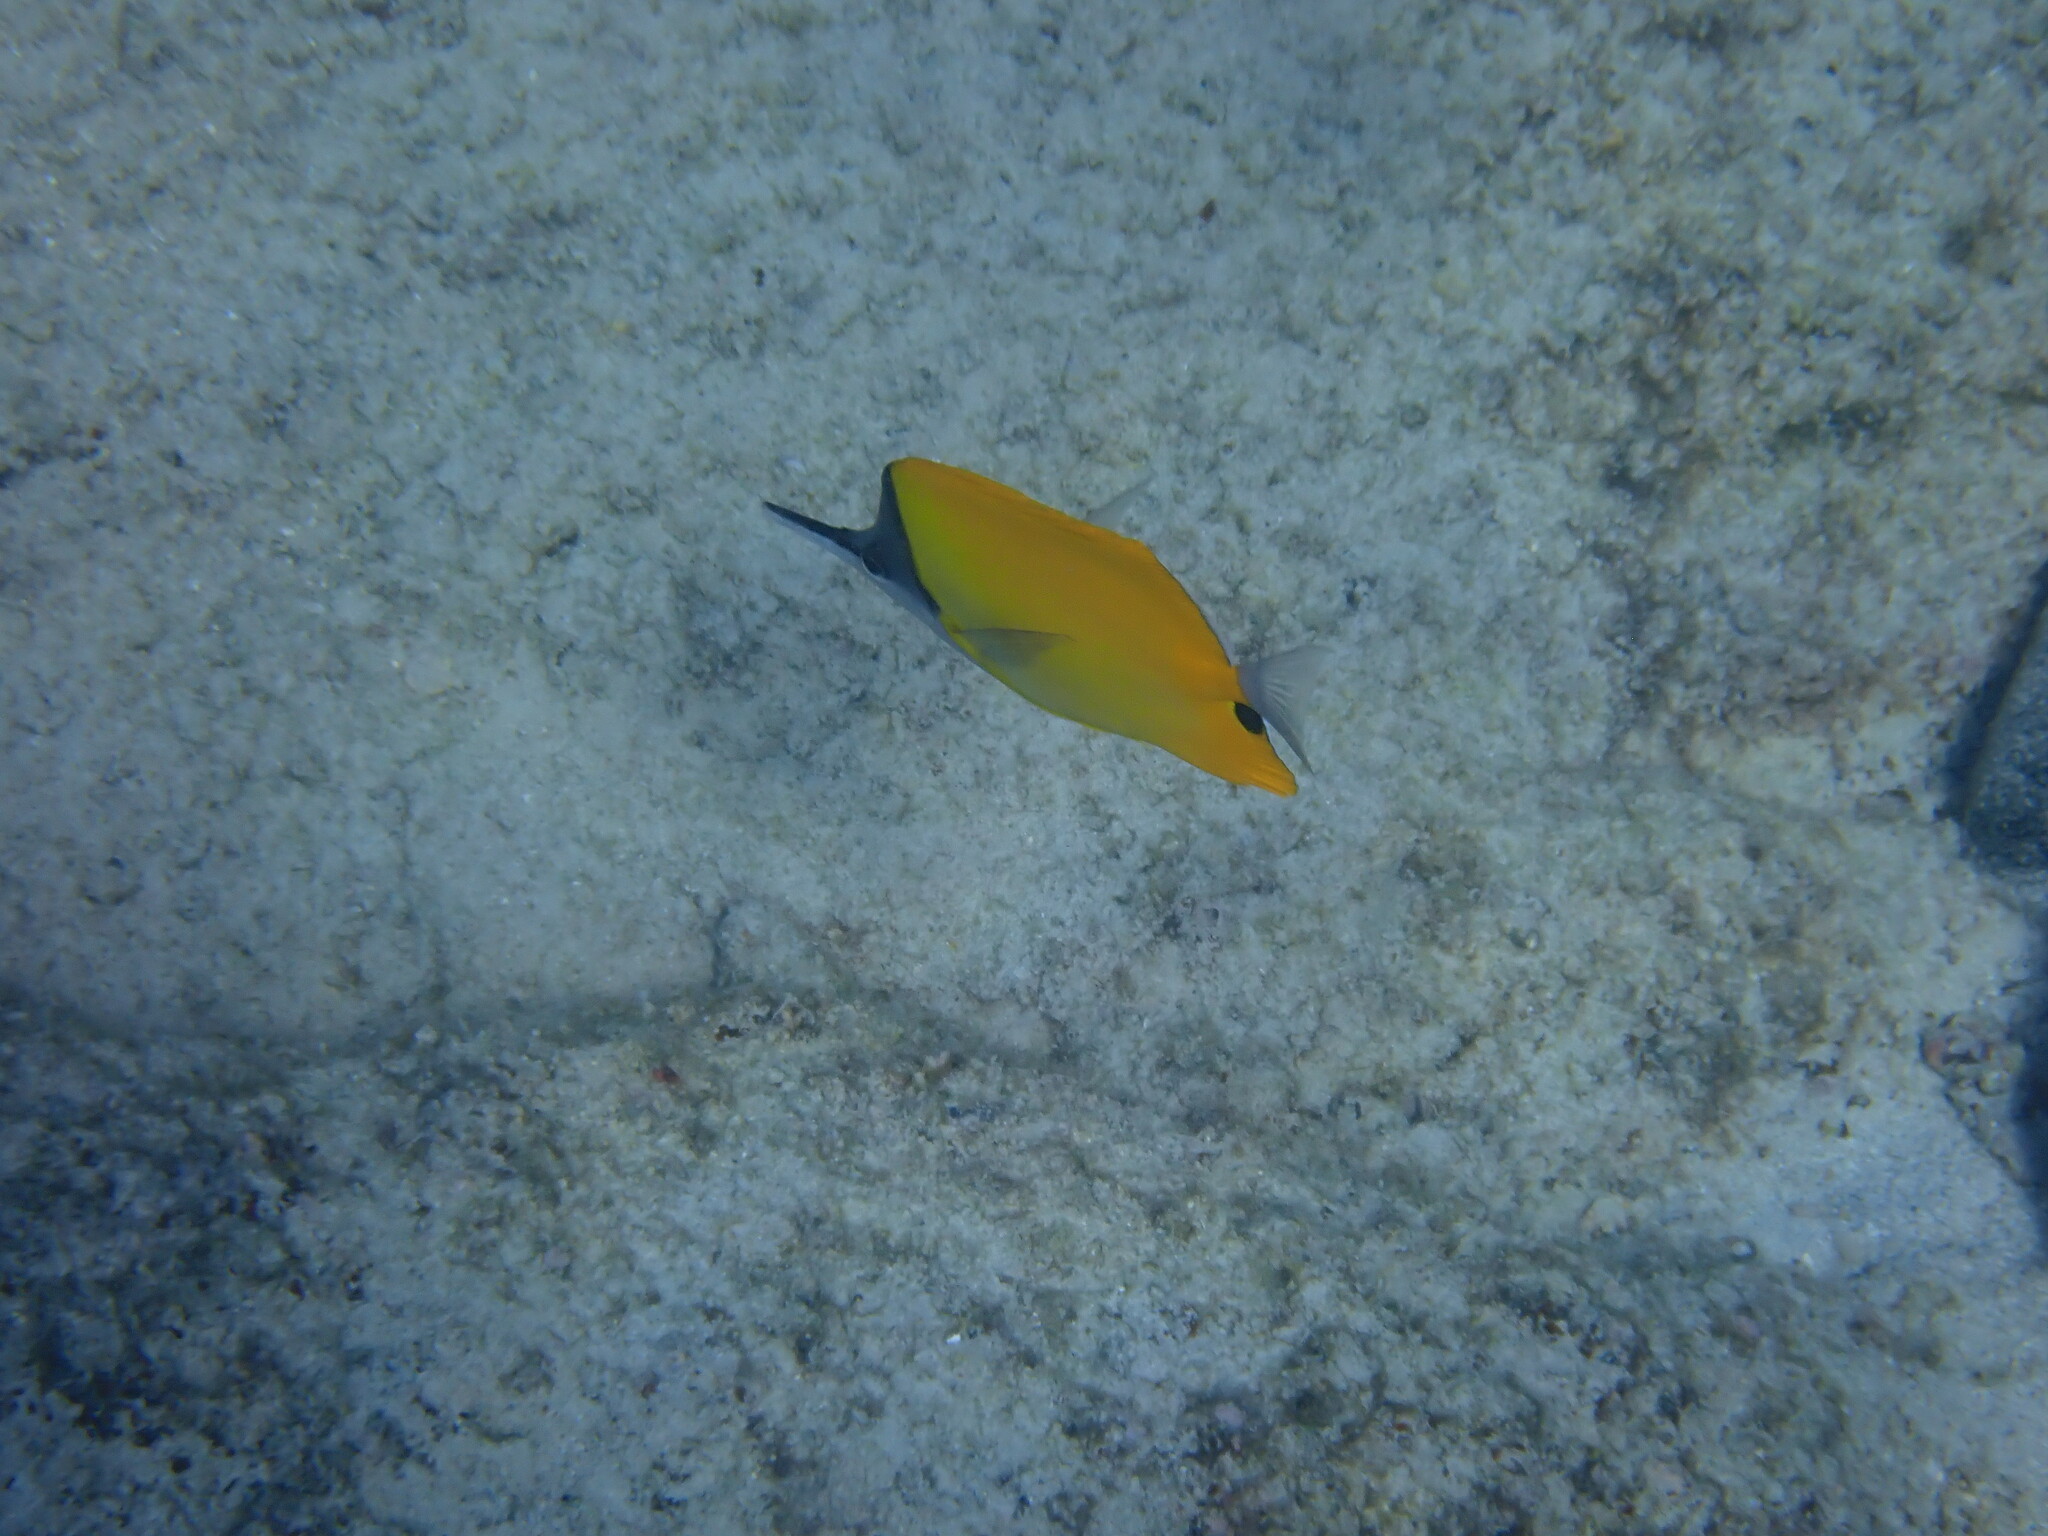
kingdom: Animalia
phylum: Chordata
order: Perciformes
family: Chaetodontidae
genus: Forcipiger
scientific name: Forcipiger flavissimus
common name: Forcepsfish
